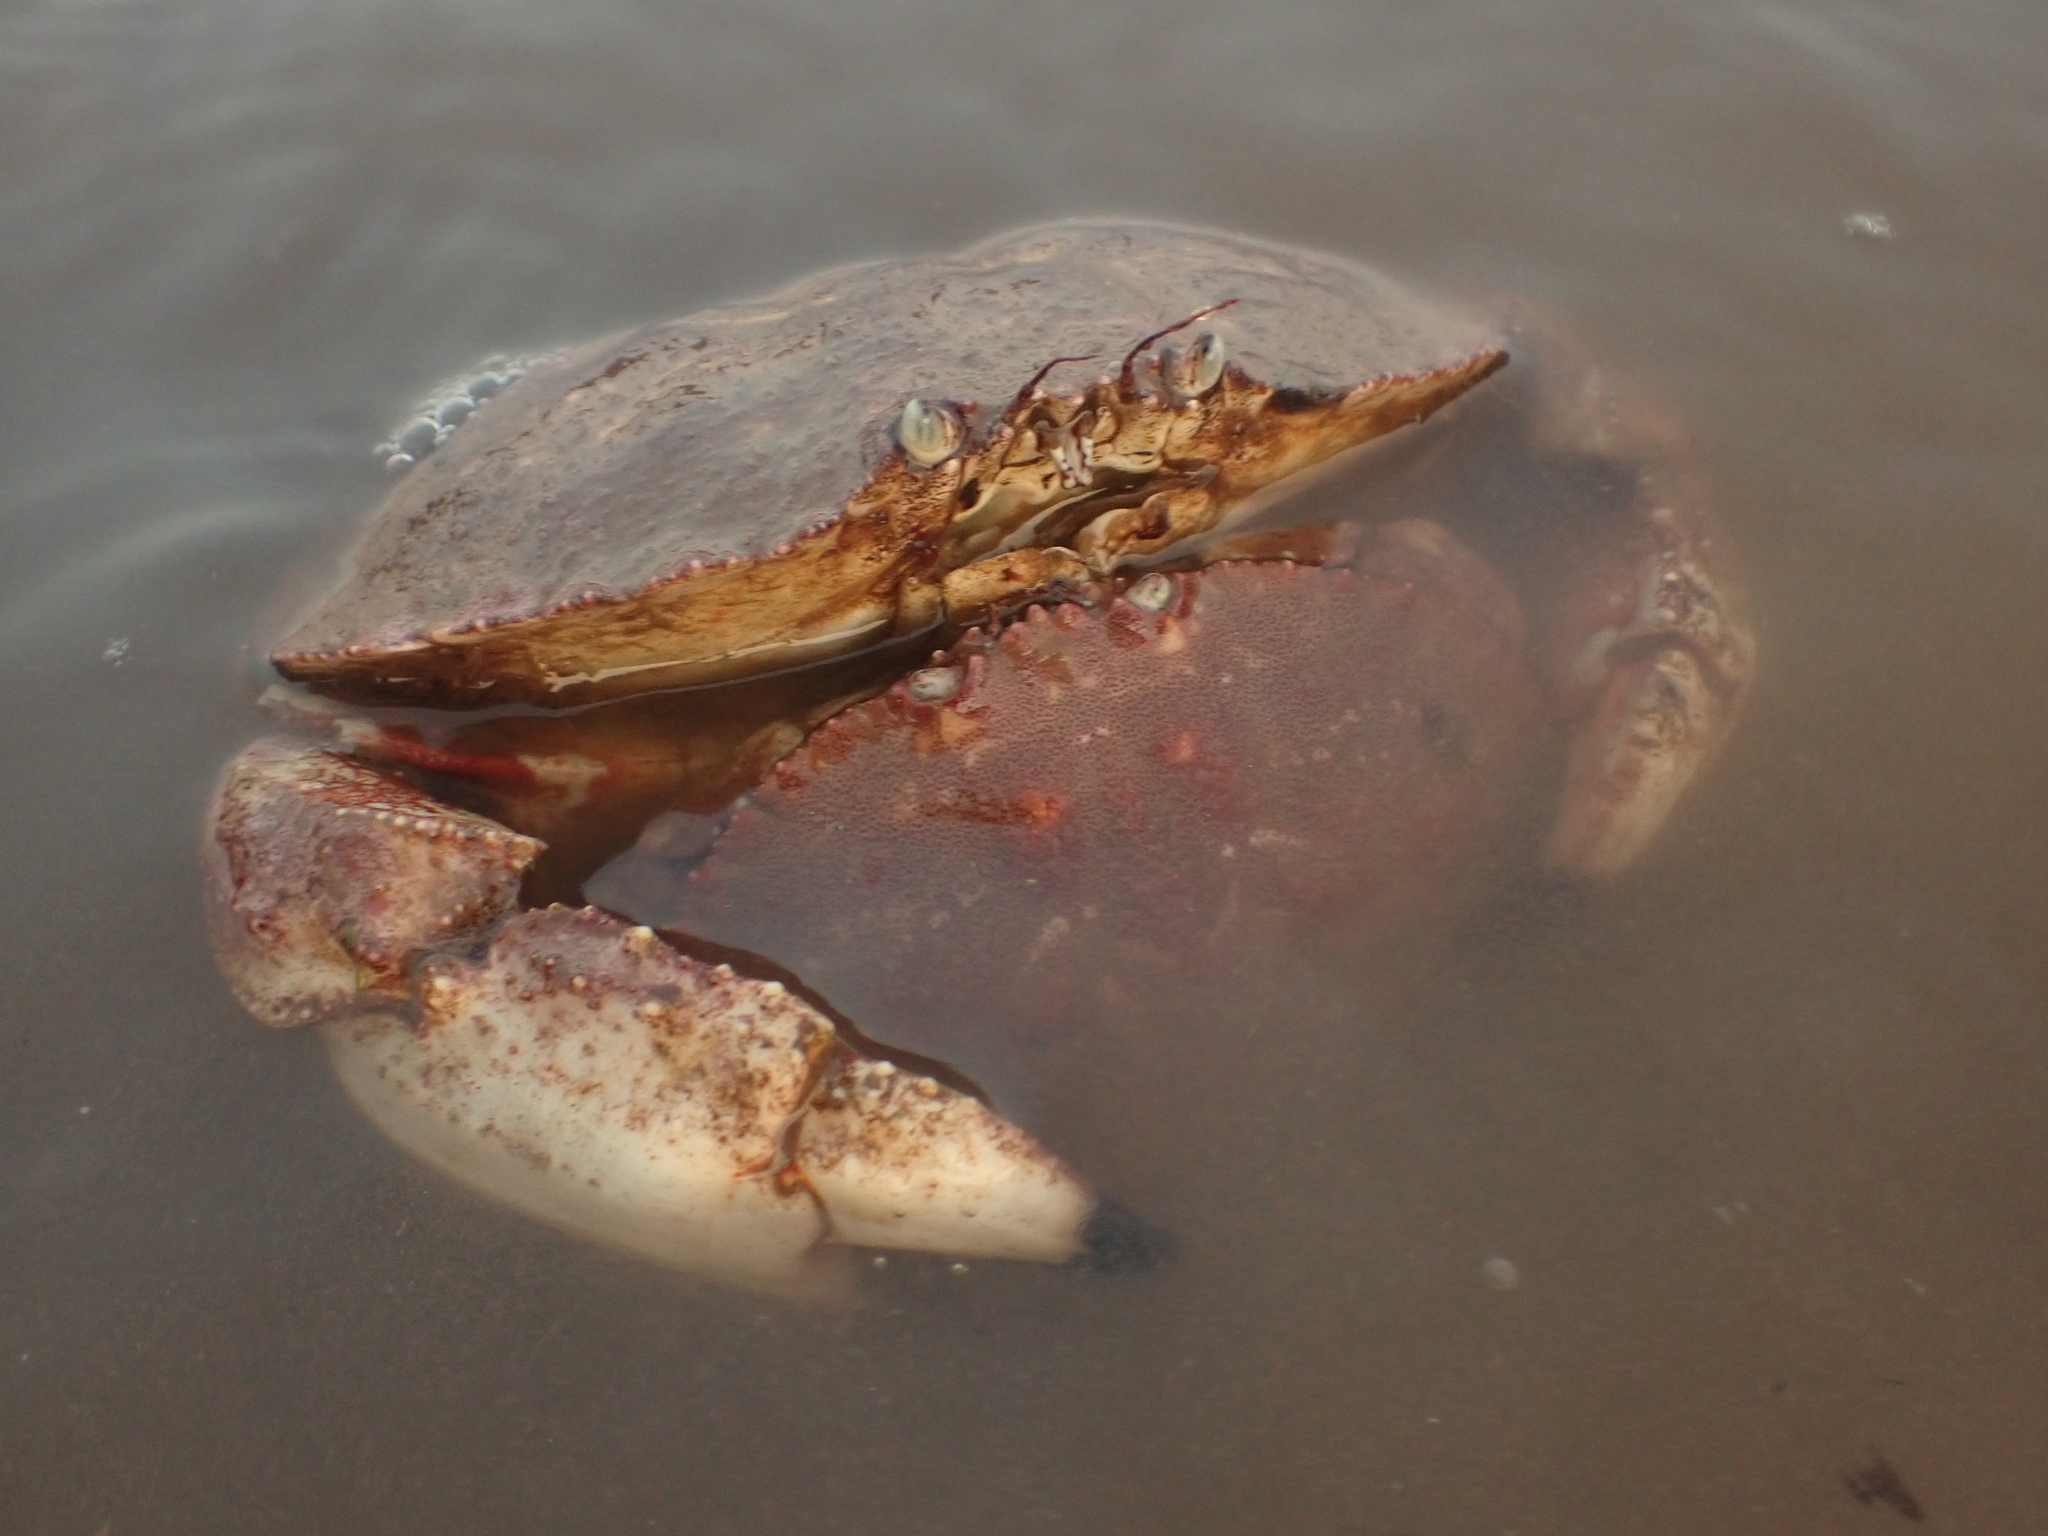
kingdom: Animalia
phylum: Arthropoda
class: Malacostraca
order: Decapoda
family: Cancridae
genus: Cancer
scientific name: Cancer borealis
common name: Jonah crab
